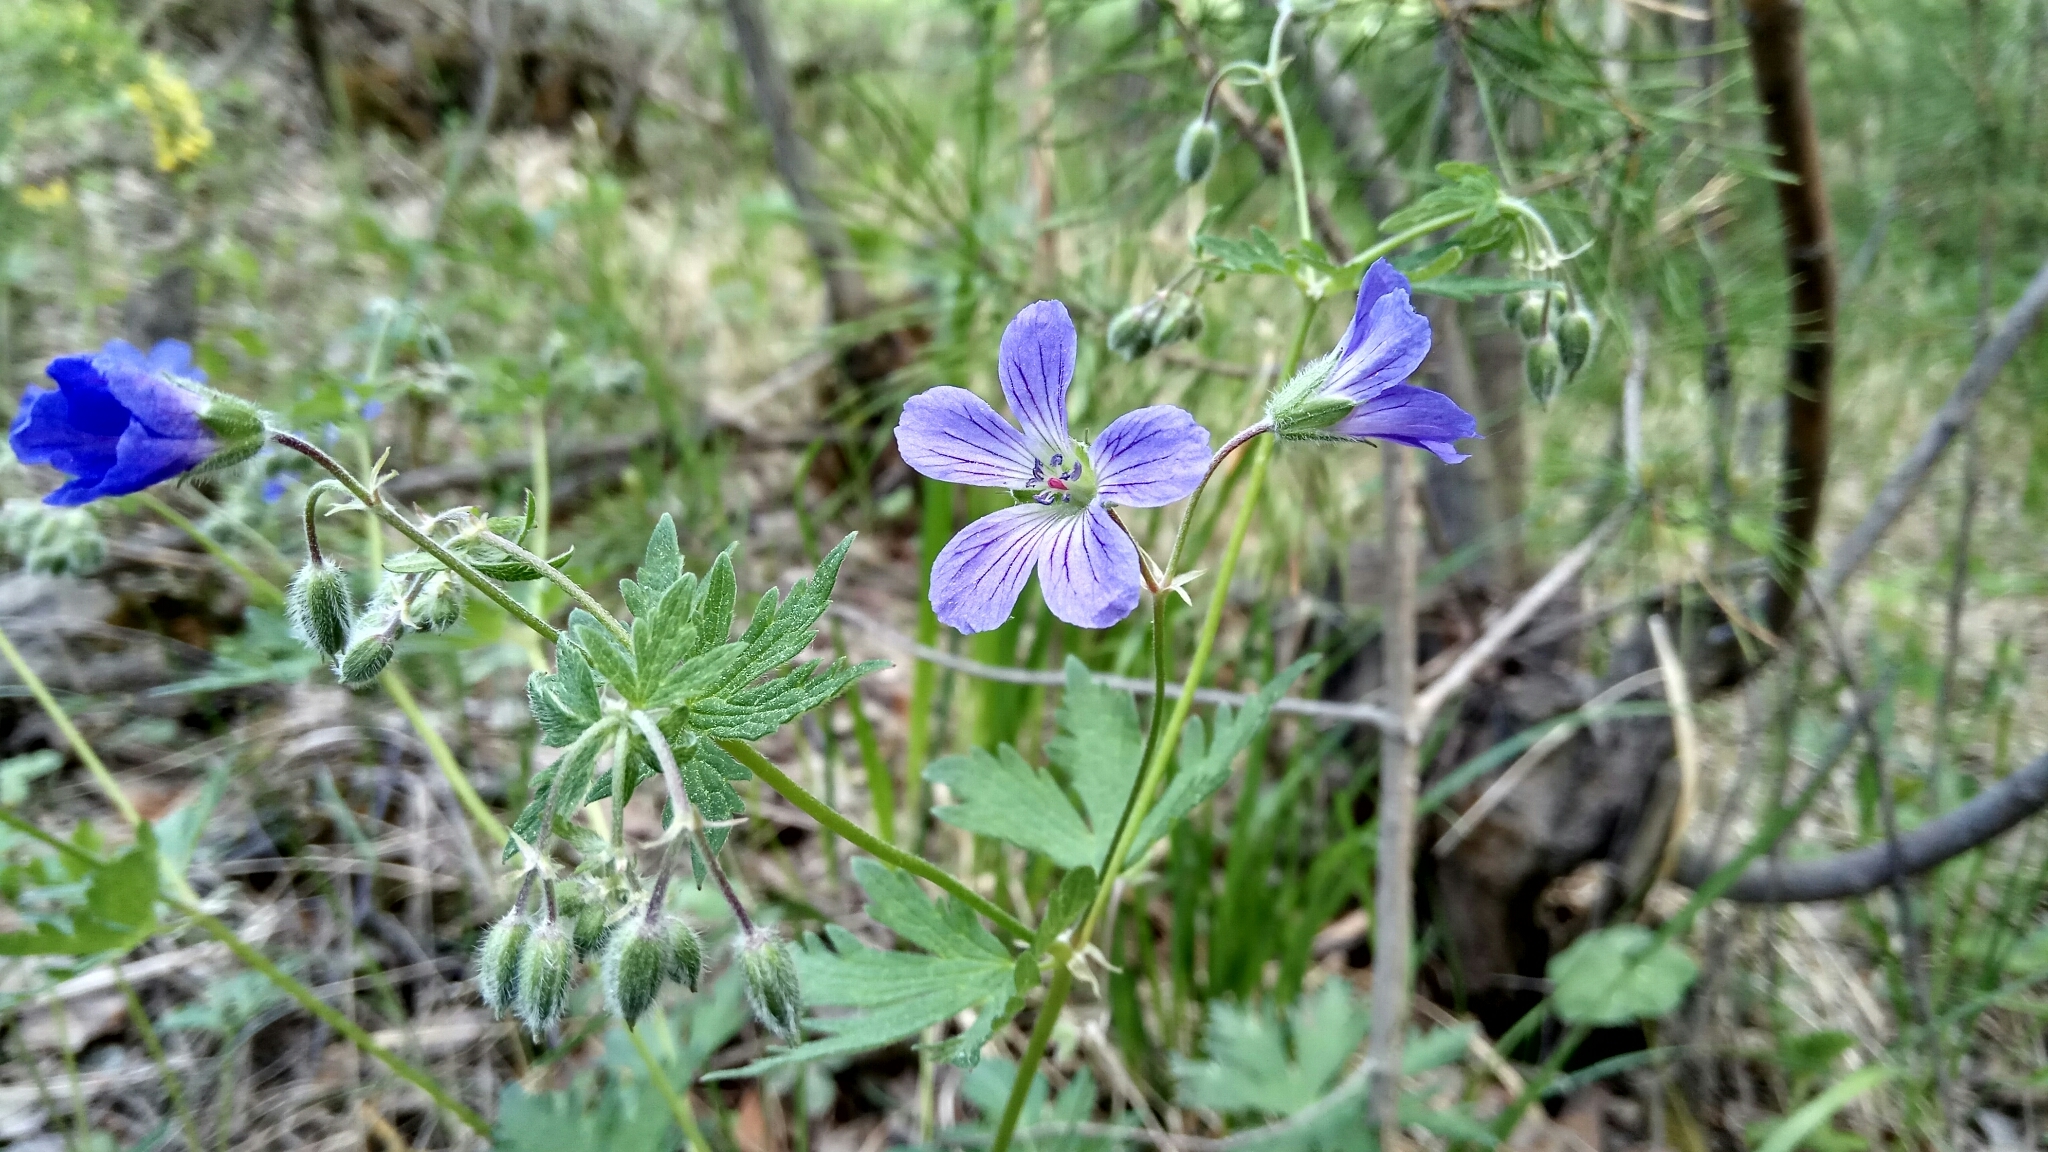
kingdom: Plantae
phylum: Tracheophyta
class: Magnoliopsida
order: Geraniales
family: Geraniaceae
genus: Geranium
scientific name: Geranium sylvaticum
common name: Wood crane's-bill
